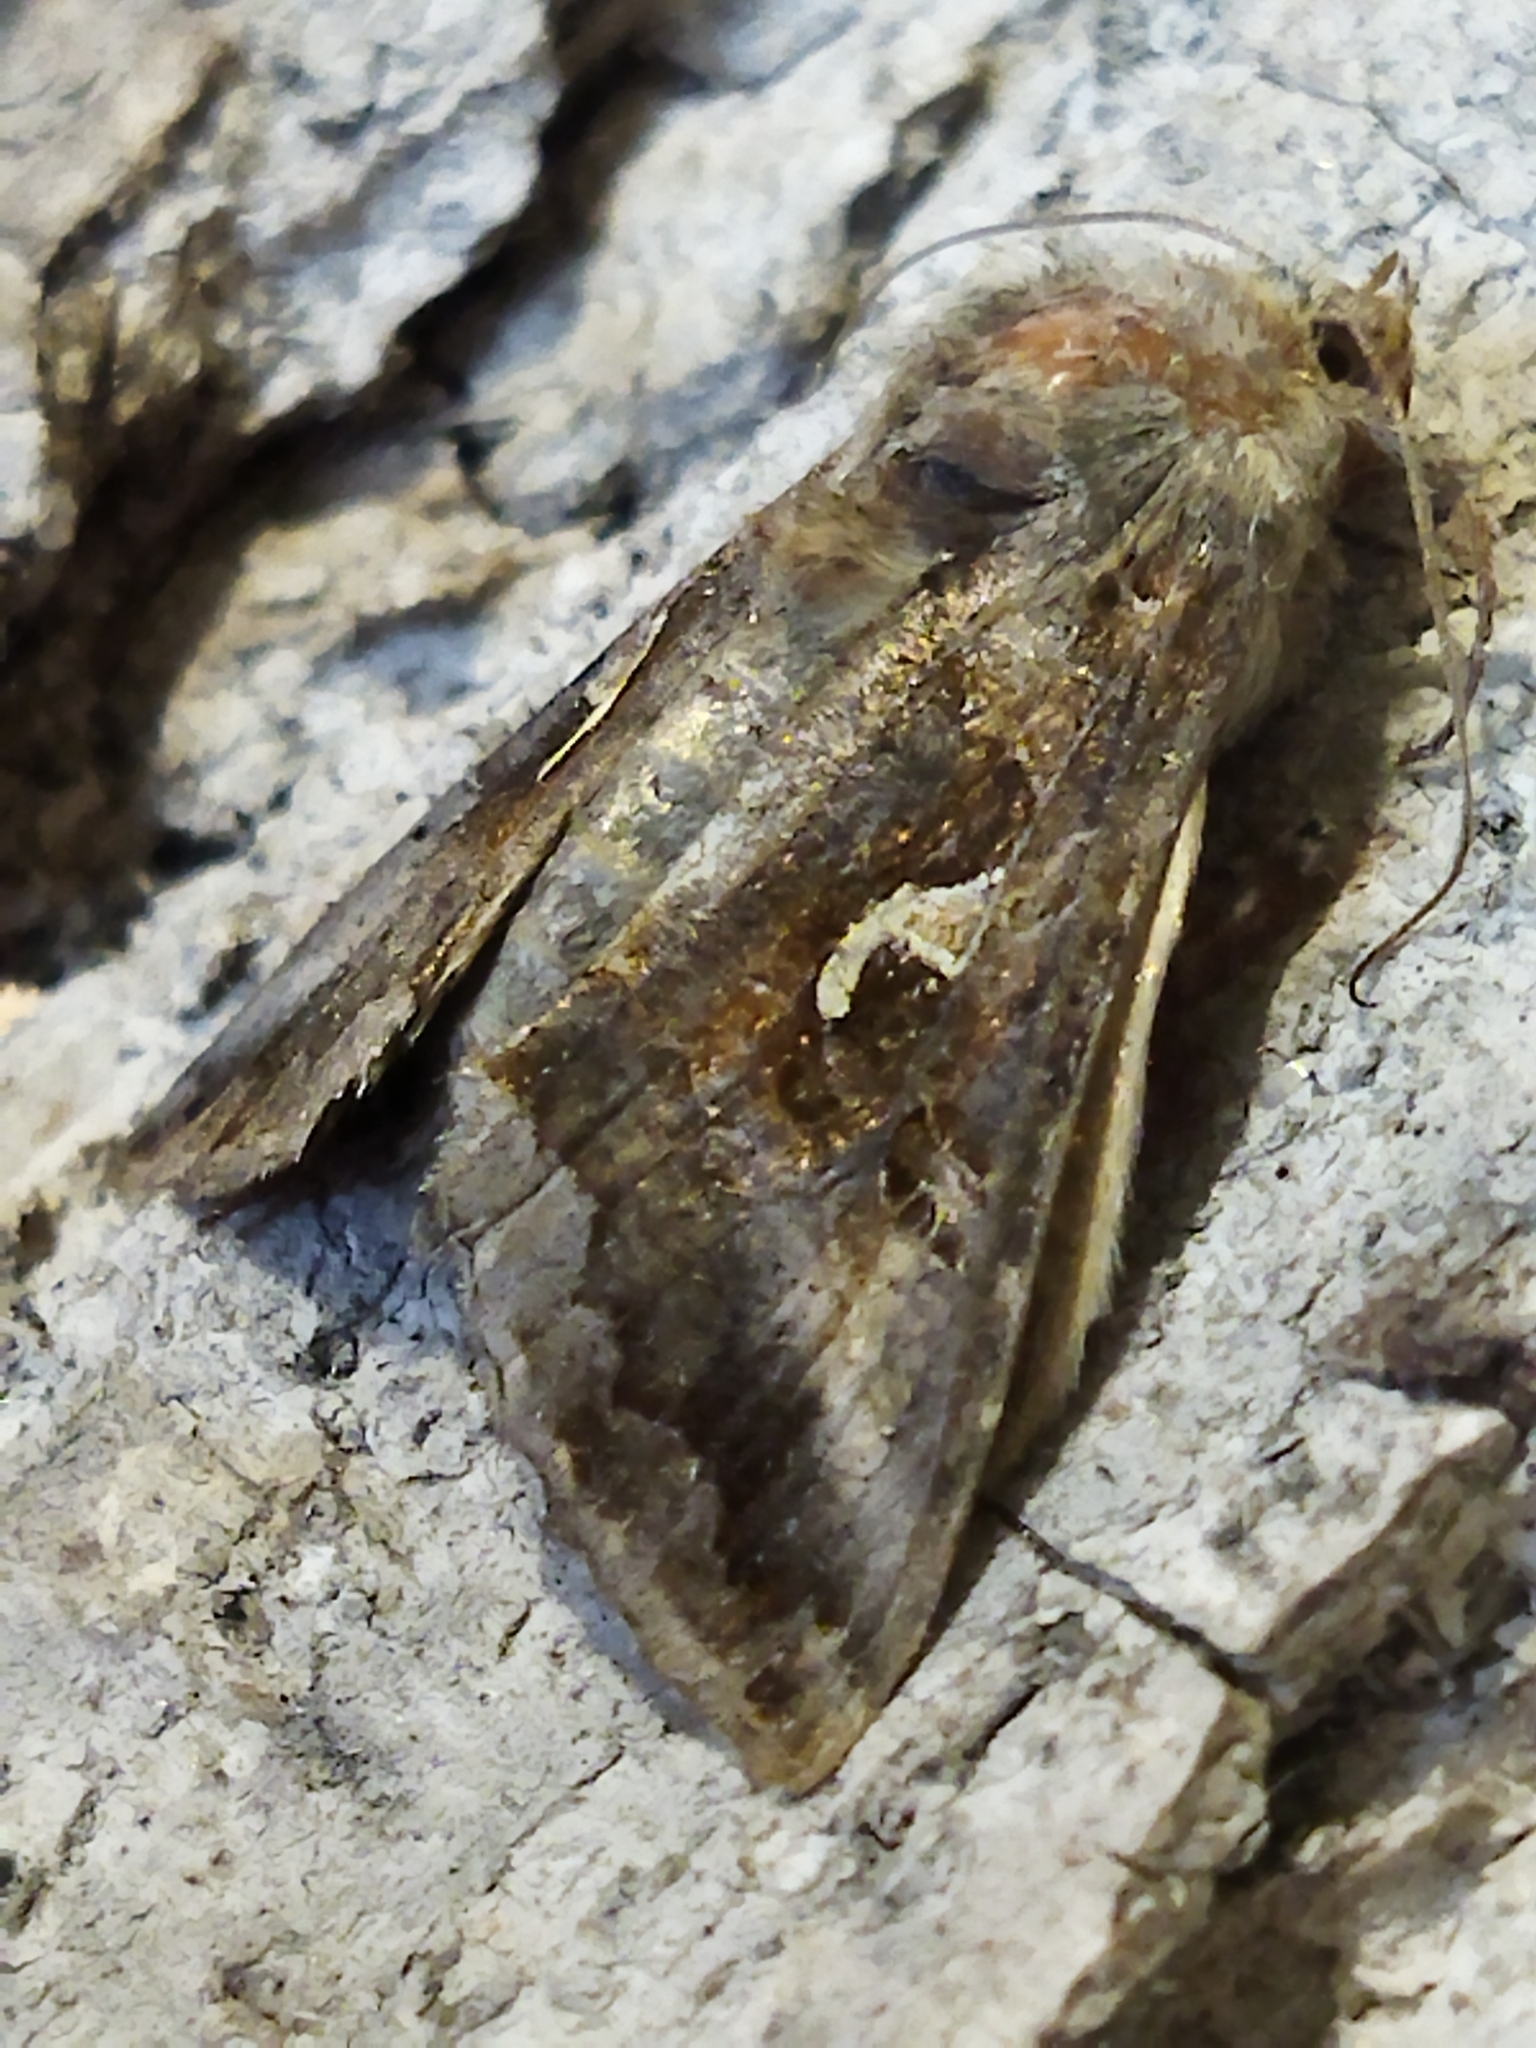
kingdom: Animalia
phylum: Arthropoda
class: Insecta
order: Lepidoptera
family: Noctuidae
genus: Autographa
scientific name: Autographa gamma
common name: Silver y
